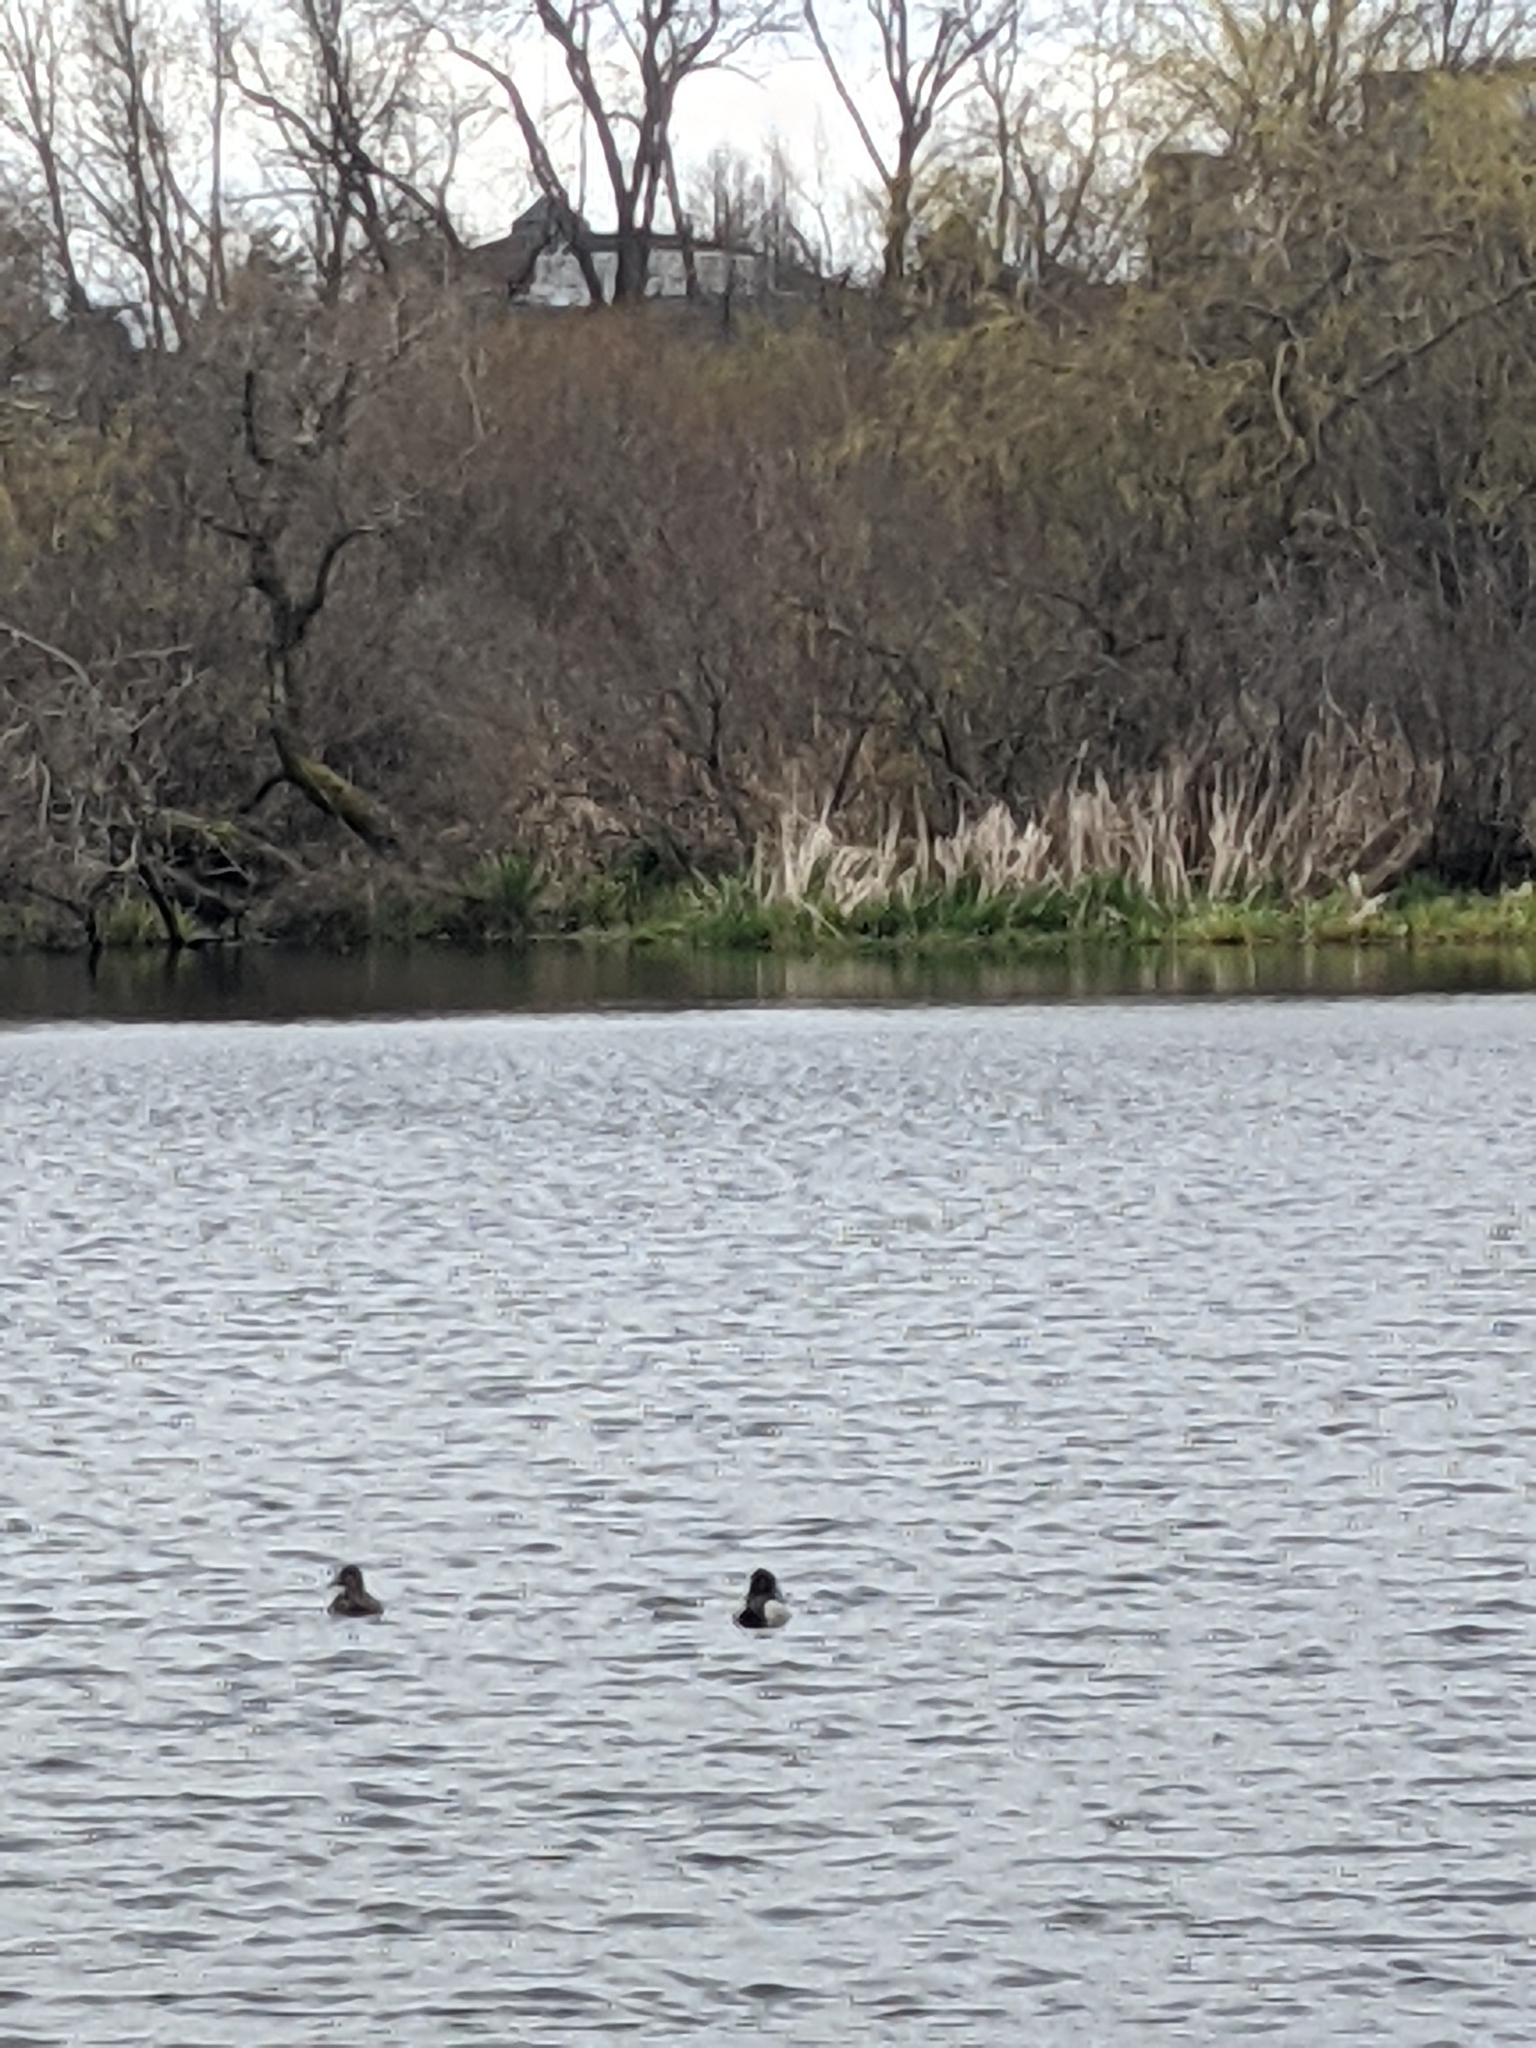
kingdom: Animalia
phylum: Chordata
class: Aves
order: Anseriformes
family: Anatidae
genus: Aythya
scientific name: Aythya collaris
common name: Ring-necked duck
